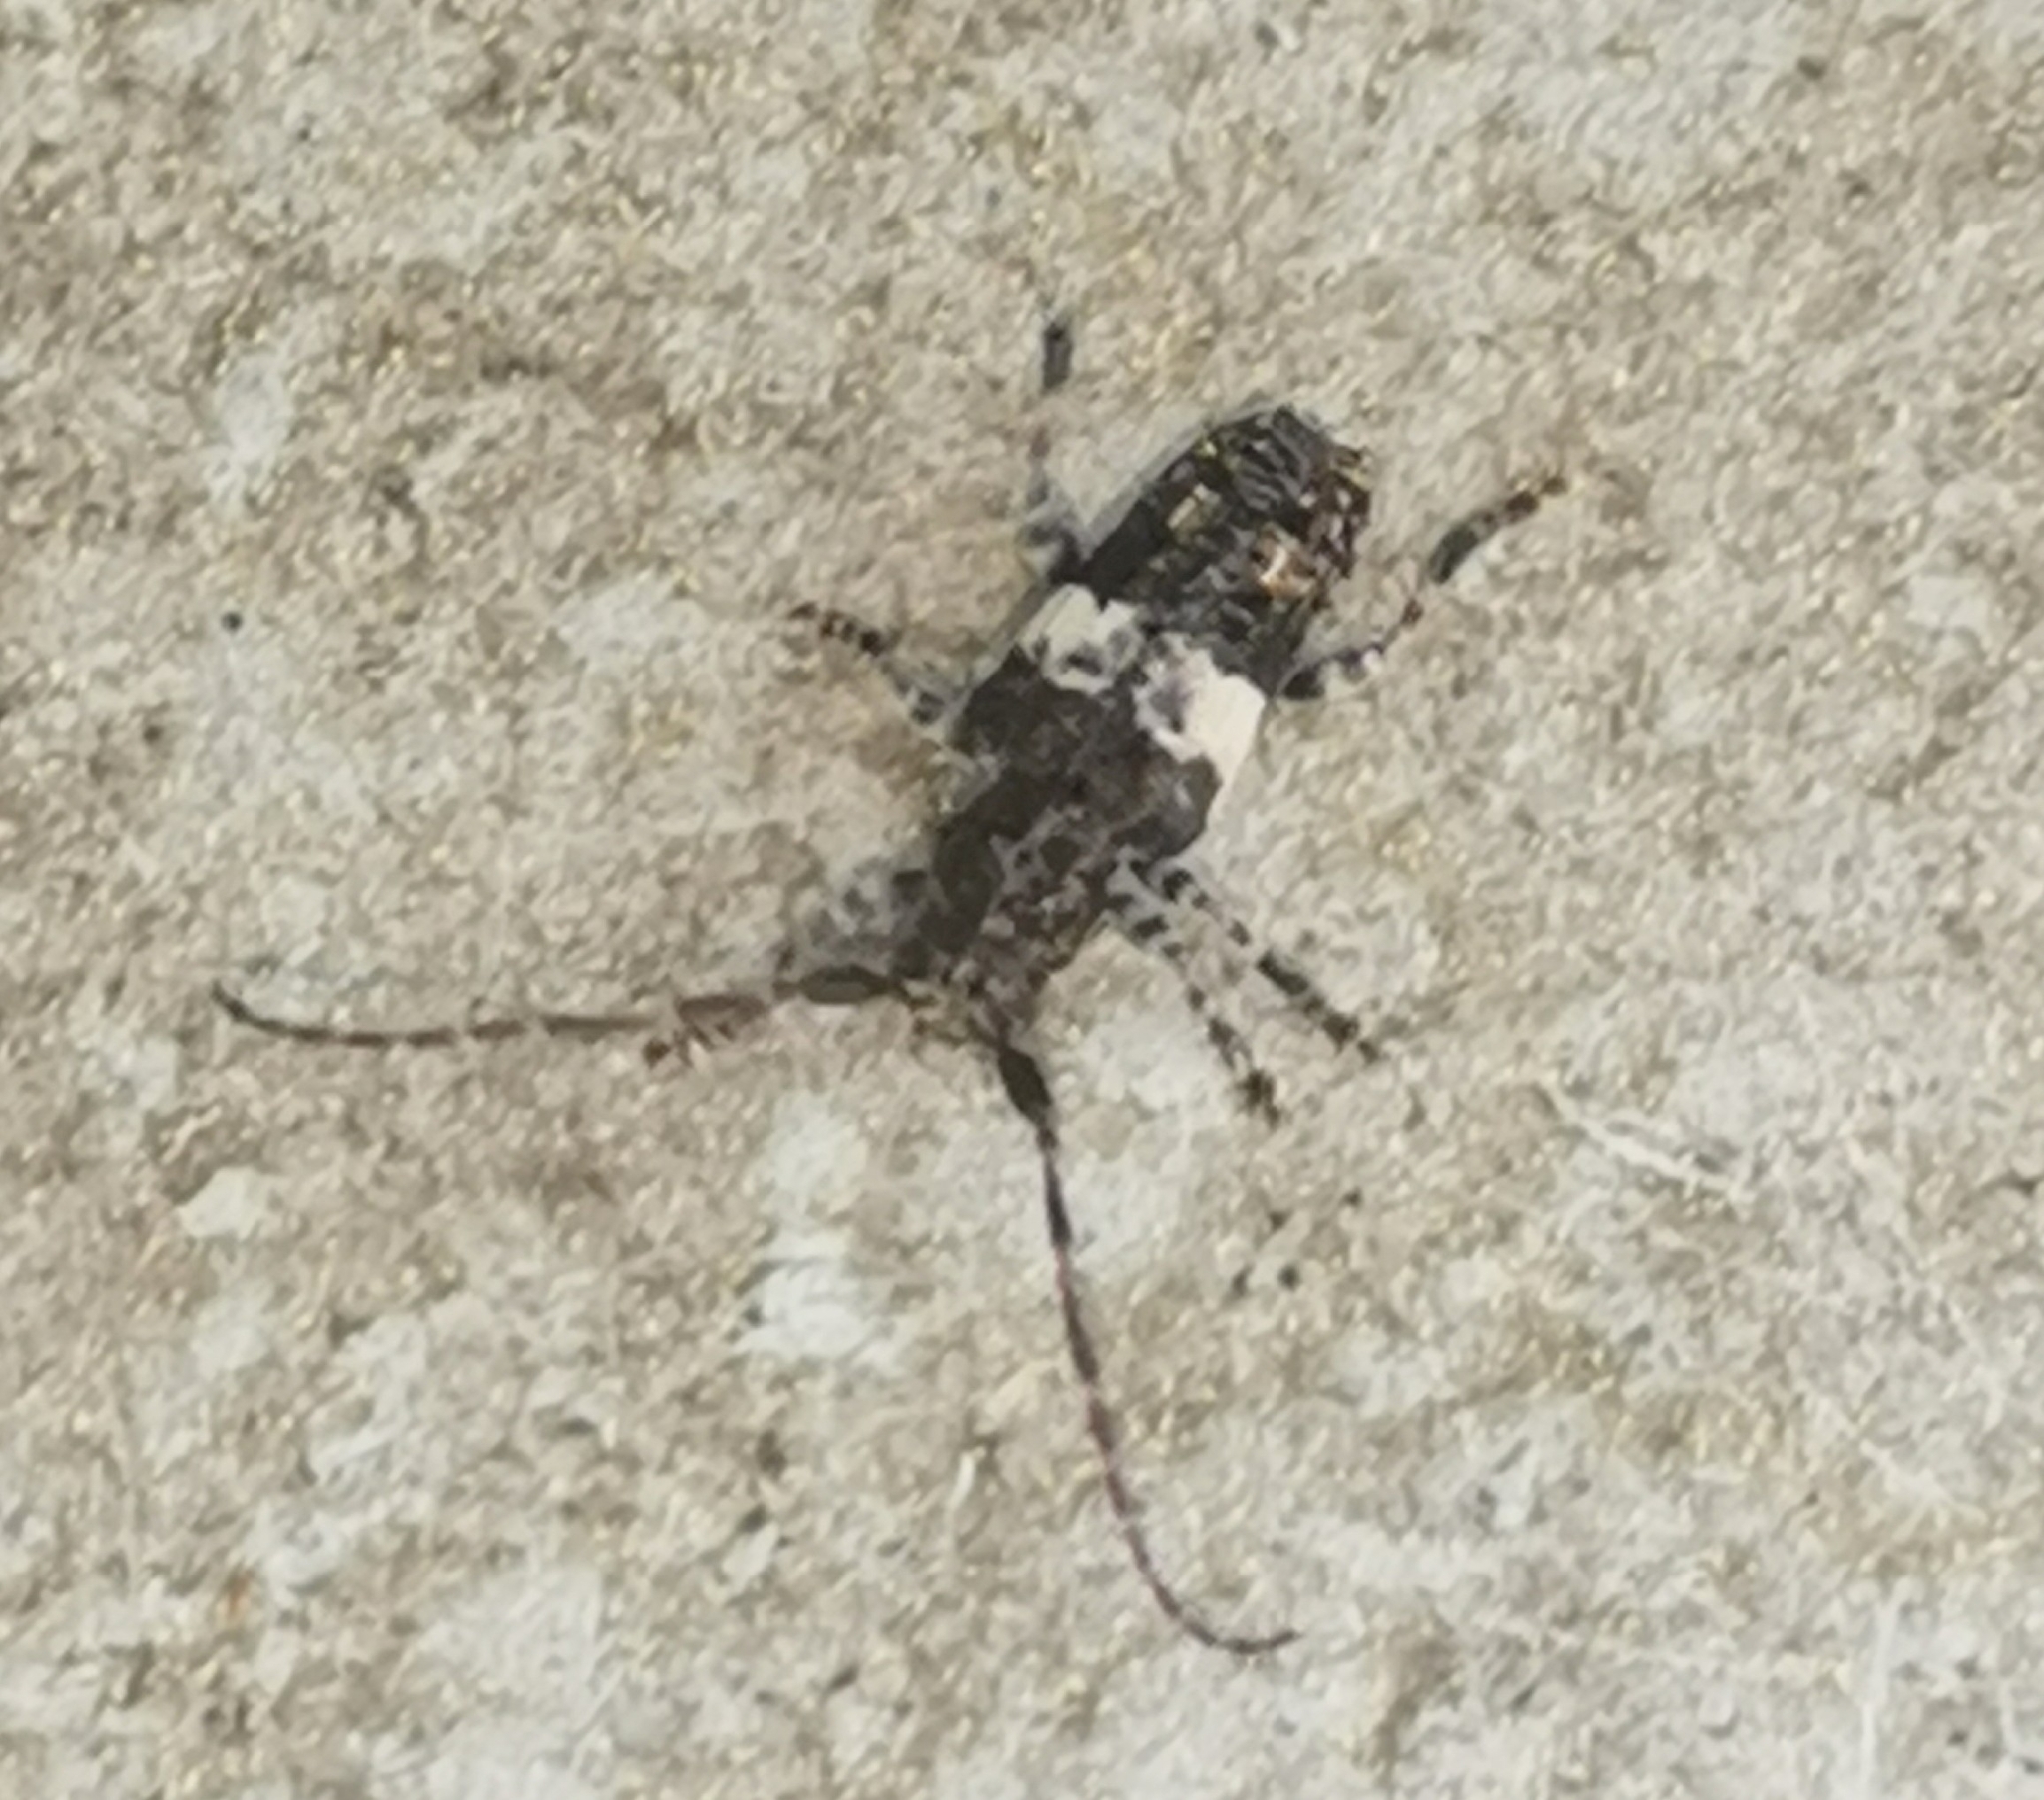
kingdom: Animalia
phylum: Arthropoda
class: Insecta
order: Coleoptera
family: Cerambycidae
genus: Pogonocherus
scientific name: Pogonocherus fasciculatus
